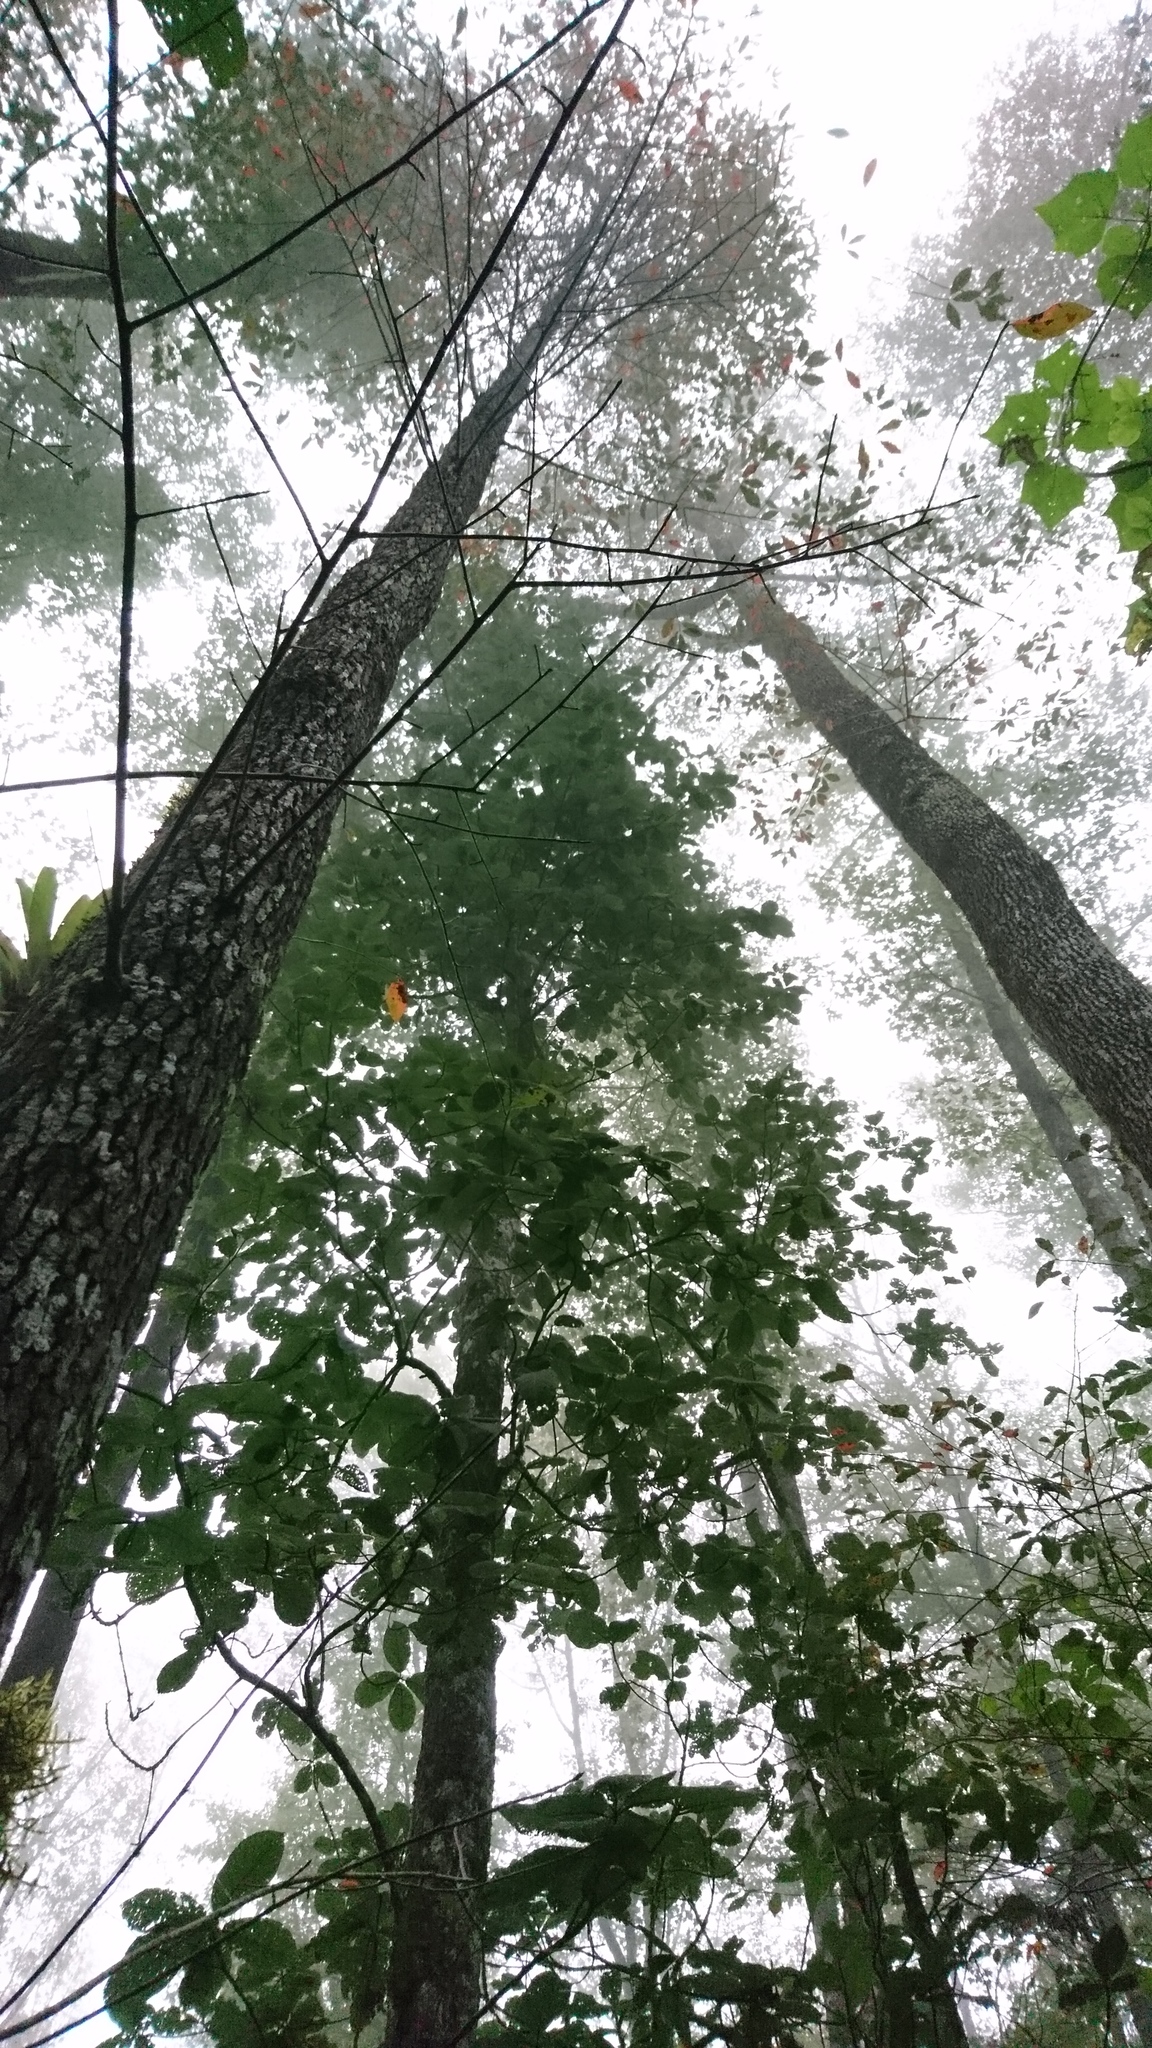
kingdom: Plantae
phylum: Tracheophyta
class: Magnoliopsida
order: Cornales
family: Nyssaceae
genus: Nyssa
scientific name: Nyssa sylvatica
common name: Black tupelo
